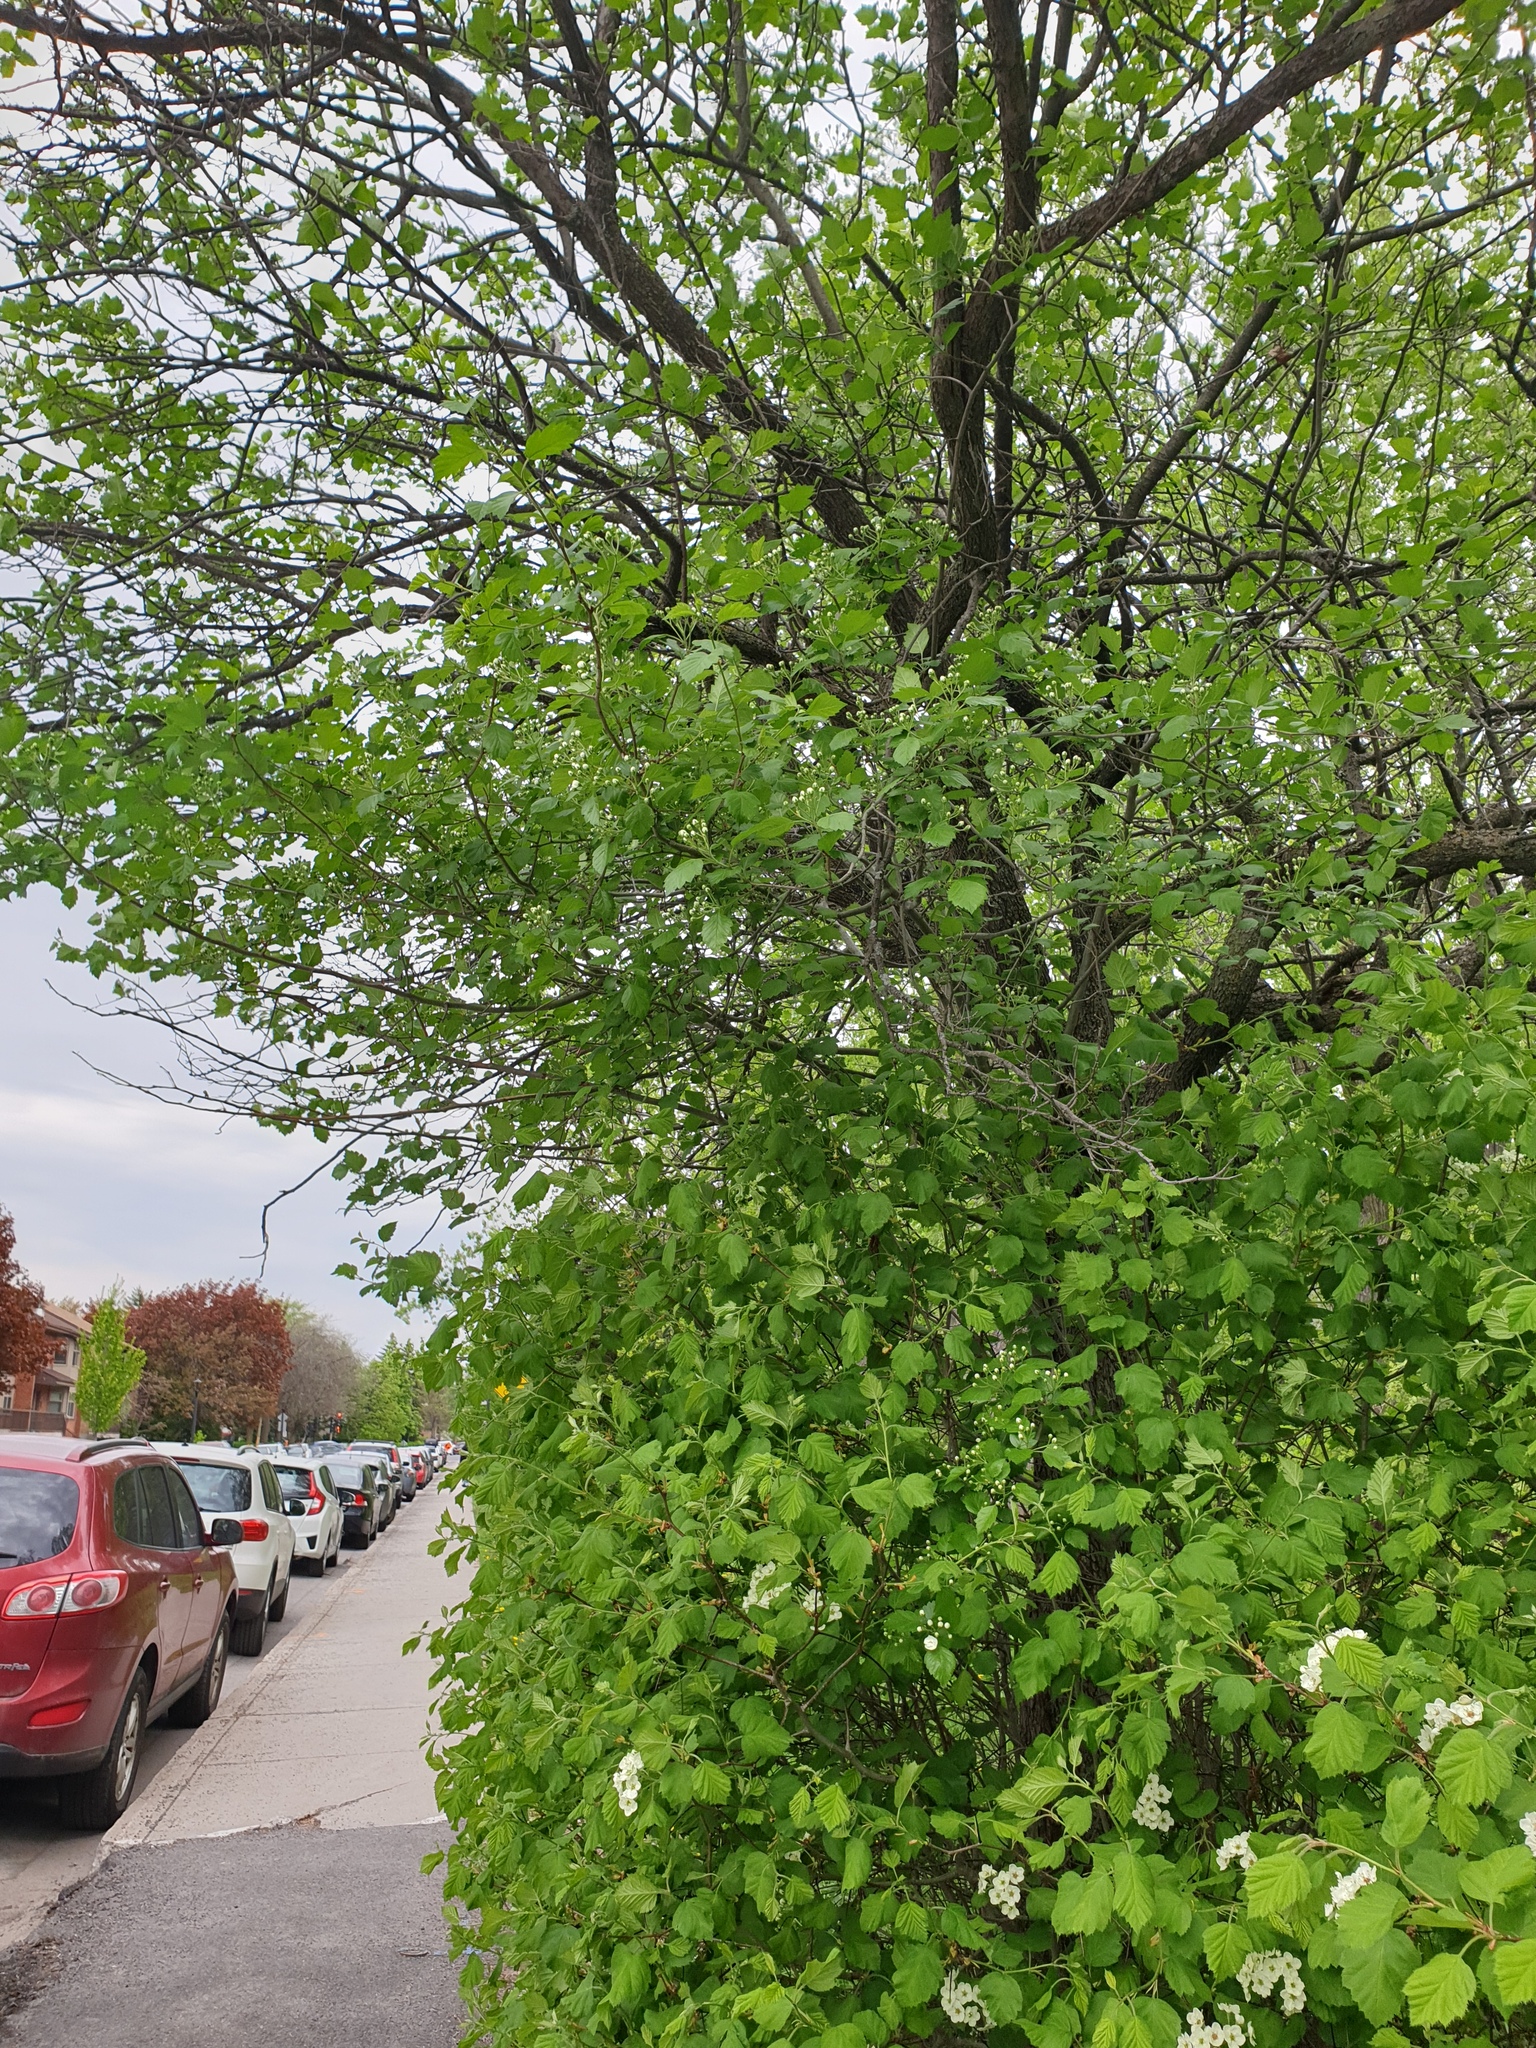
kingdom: Plantae
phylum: Tracheophyta
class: Magnoliopsida
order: Rosales
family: Rosaceae
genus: Crataegus
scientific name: Crataegus submollis
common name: Hairy cockspurthorn
